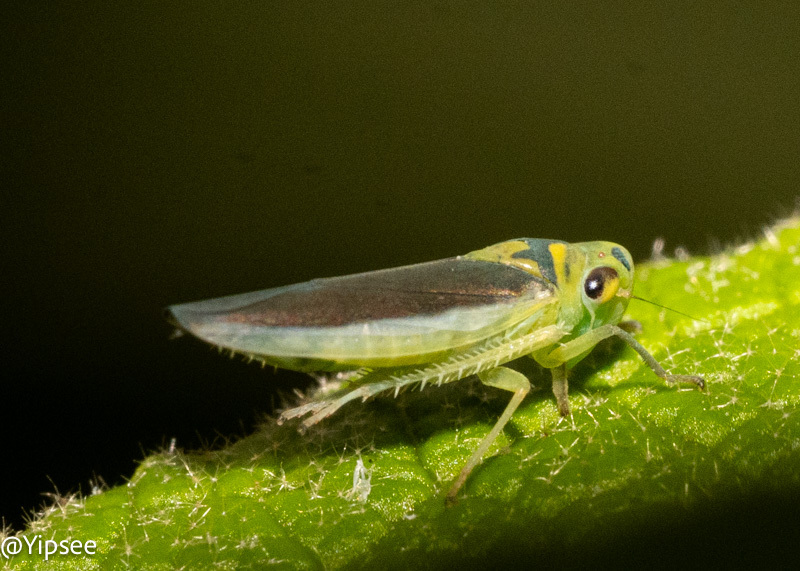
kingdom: Animalia
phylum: Arthropoda
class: Insecta
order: Hemiptera
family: Cicadellidae
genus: Kolla
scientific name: Kolla bataviae
